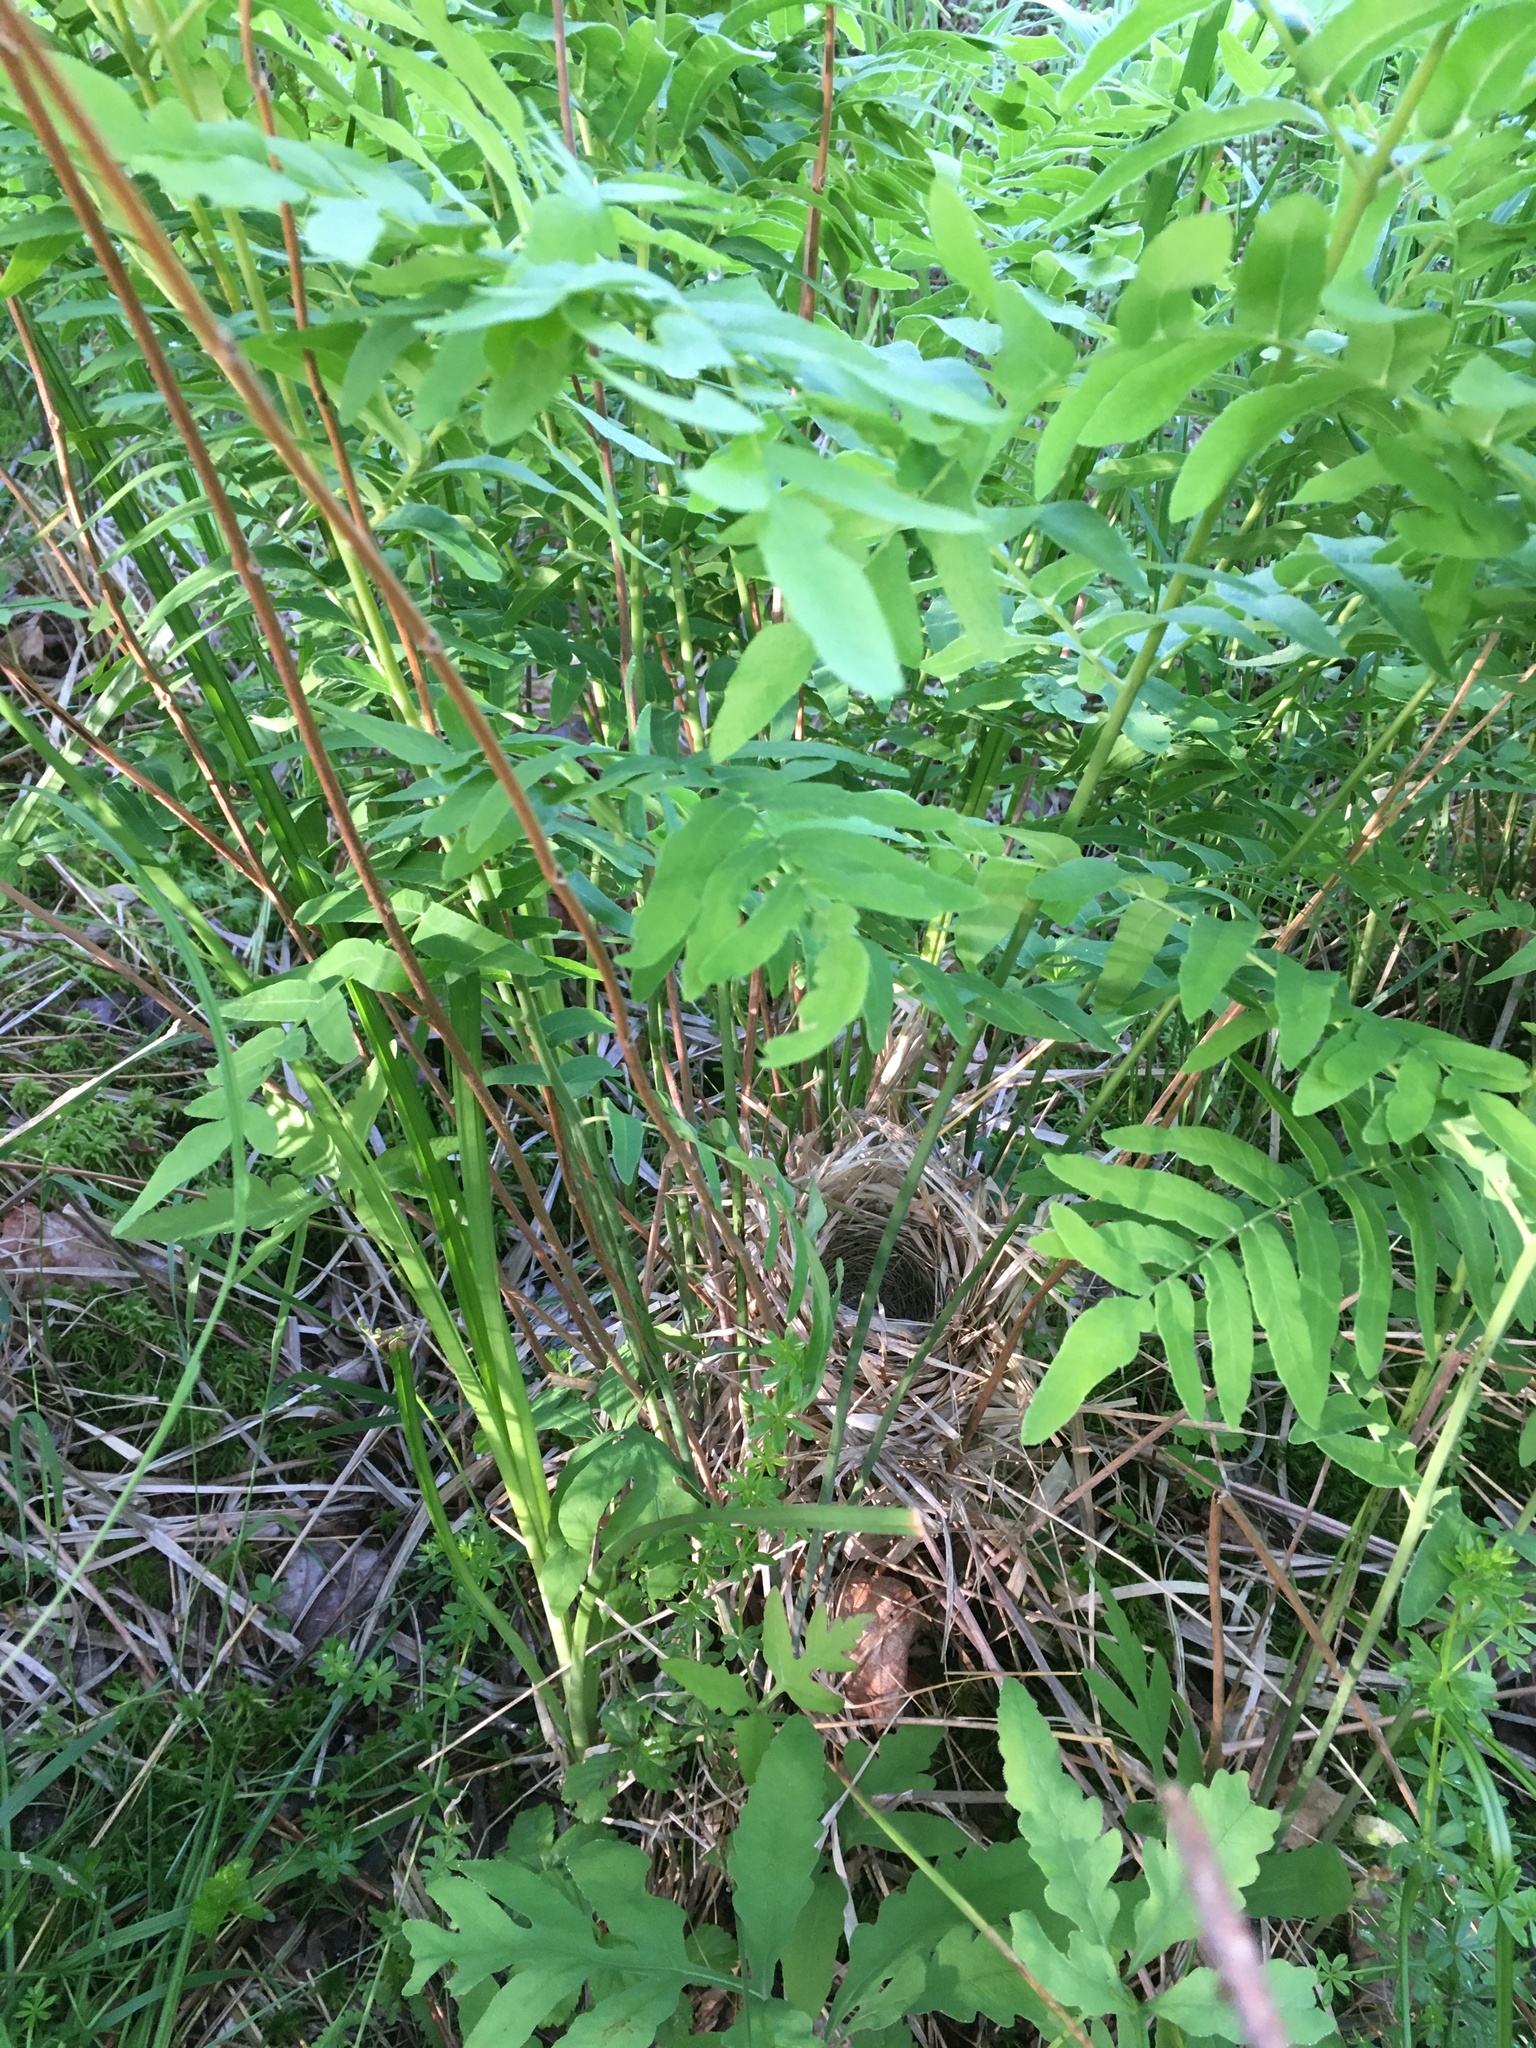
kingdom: Animalia
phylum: Chordata
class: Aves
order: Passeriformes
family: Parulidae
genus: Geothlypis
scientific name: Geothlypis trichas
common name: Common yellowthroat
